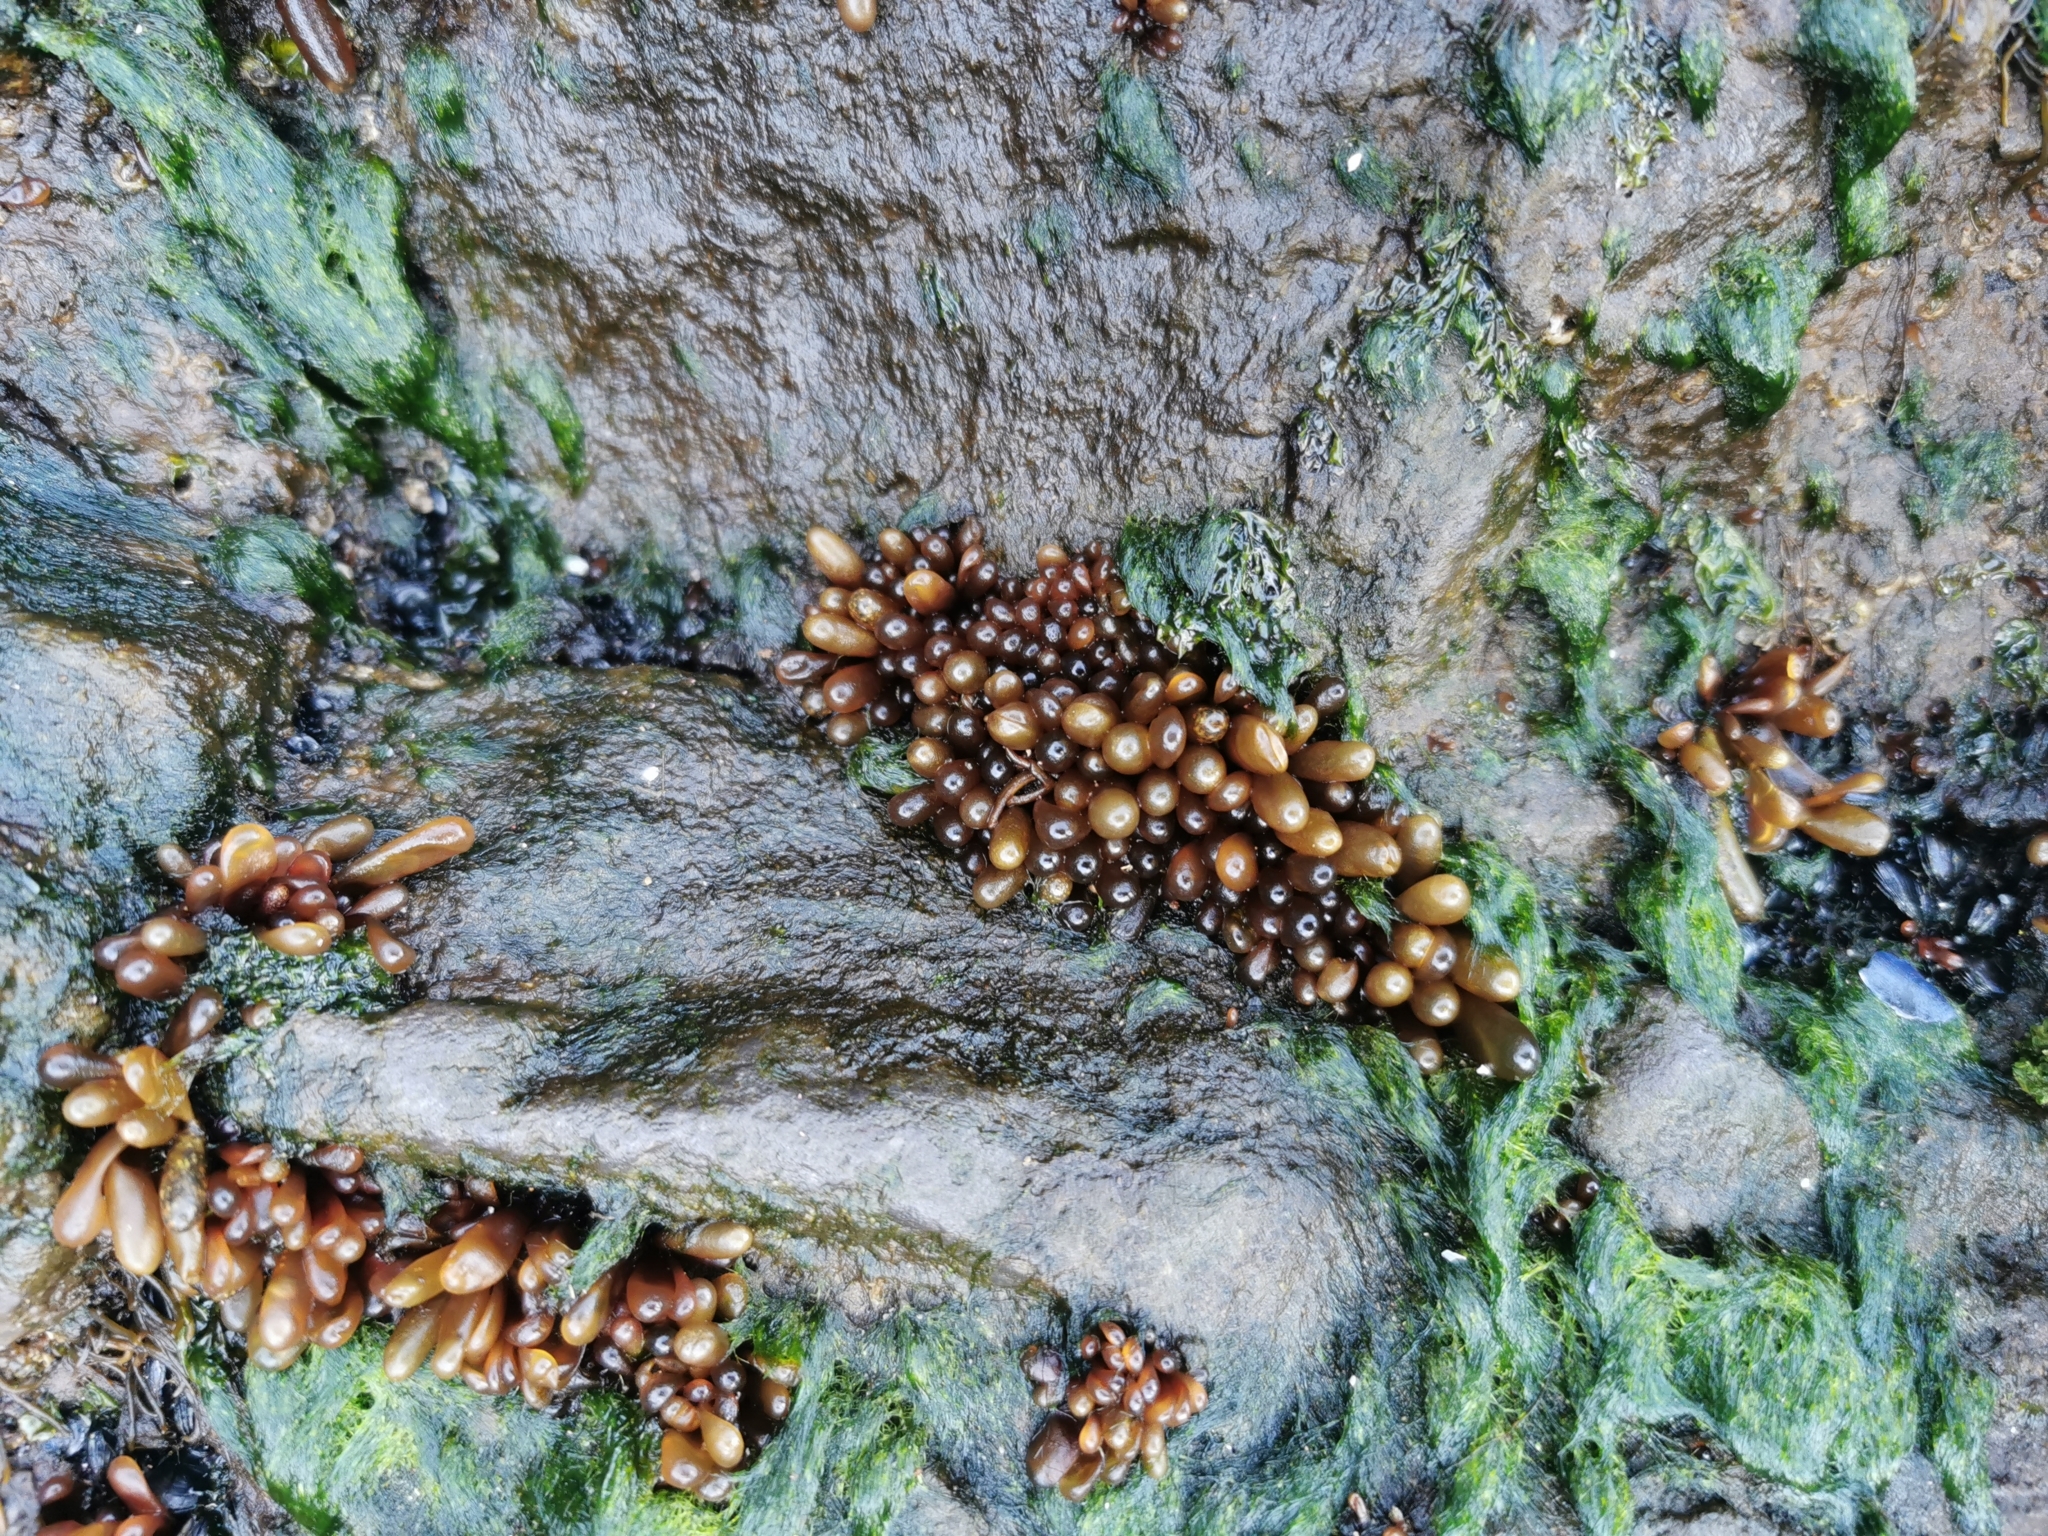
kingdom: Plantae
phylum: Rhodophyta
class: Florideophyceae
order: Palmariales
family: Palmariaceae
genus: Halosaccion
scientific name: Halosaccion glandiforme
